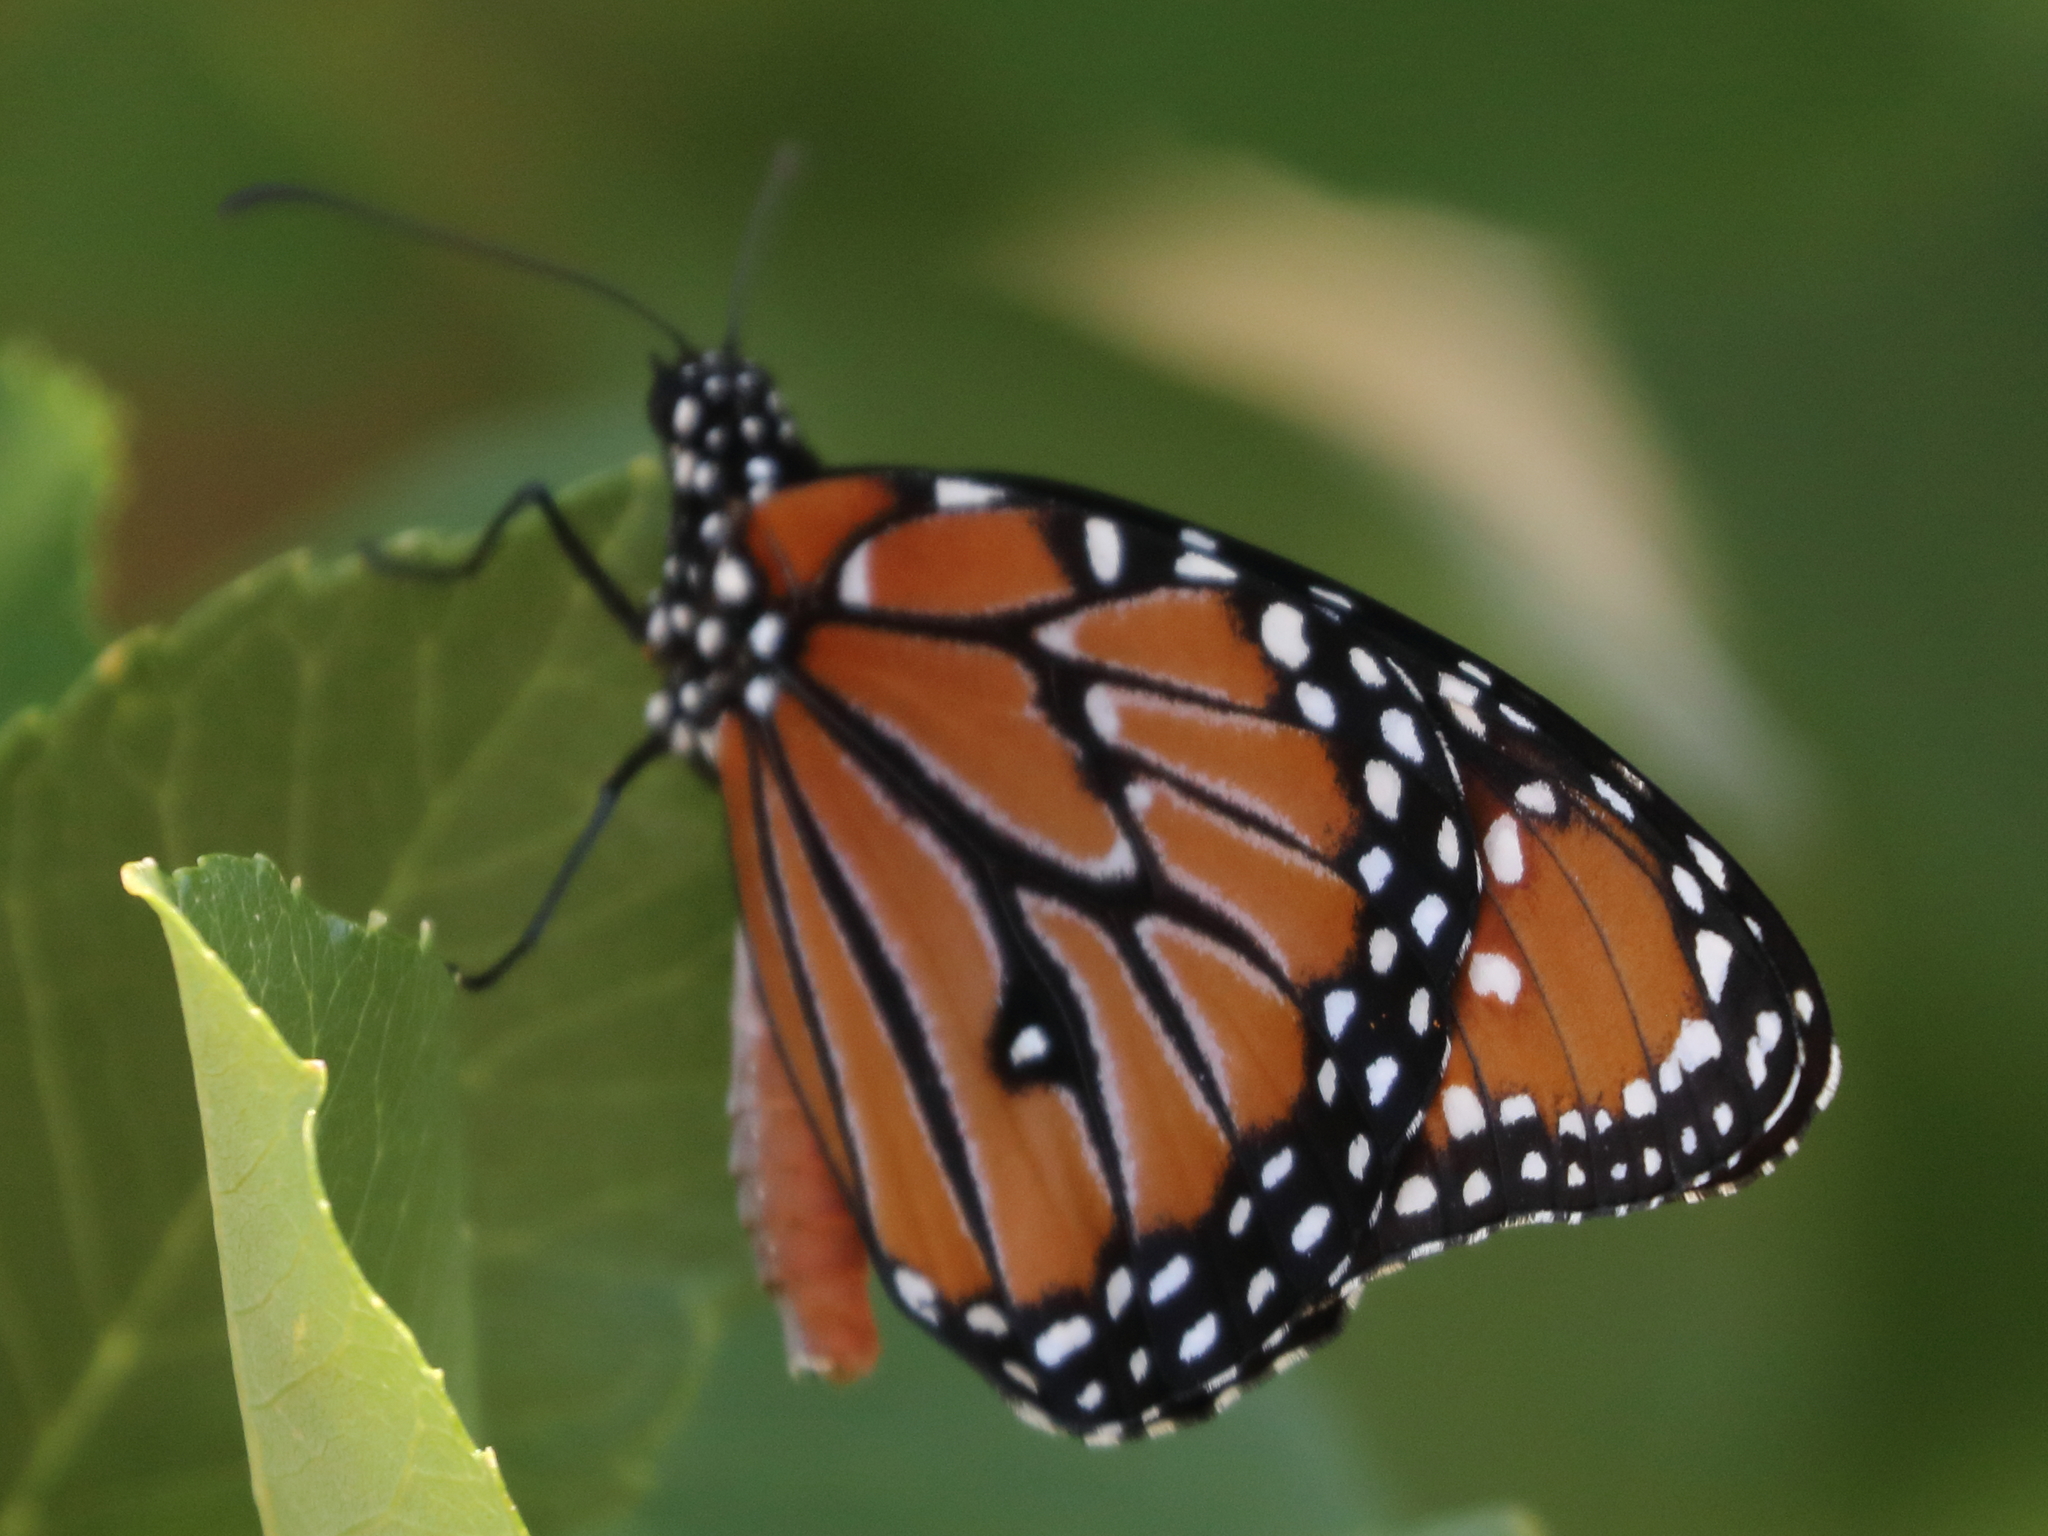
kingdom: Animalia
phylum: Arthropoda
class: Insecta
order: Lepidoptera
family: Nymphalidae
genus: Danaus
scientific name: Danaus gilippus
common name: Queen
